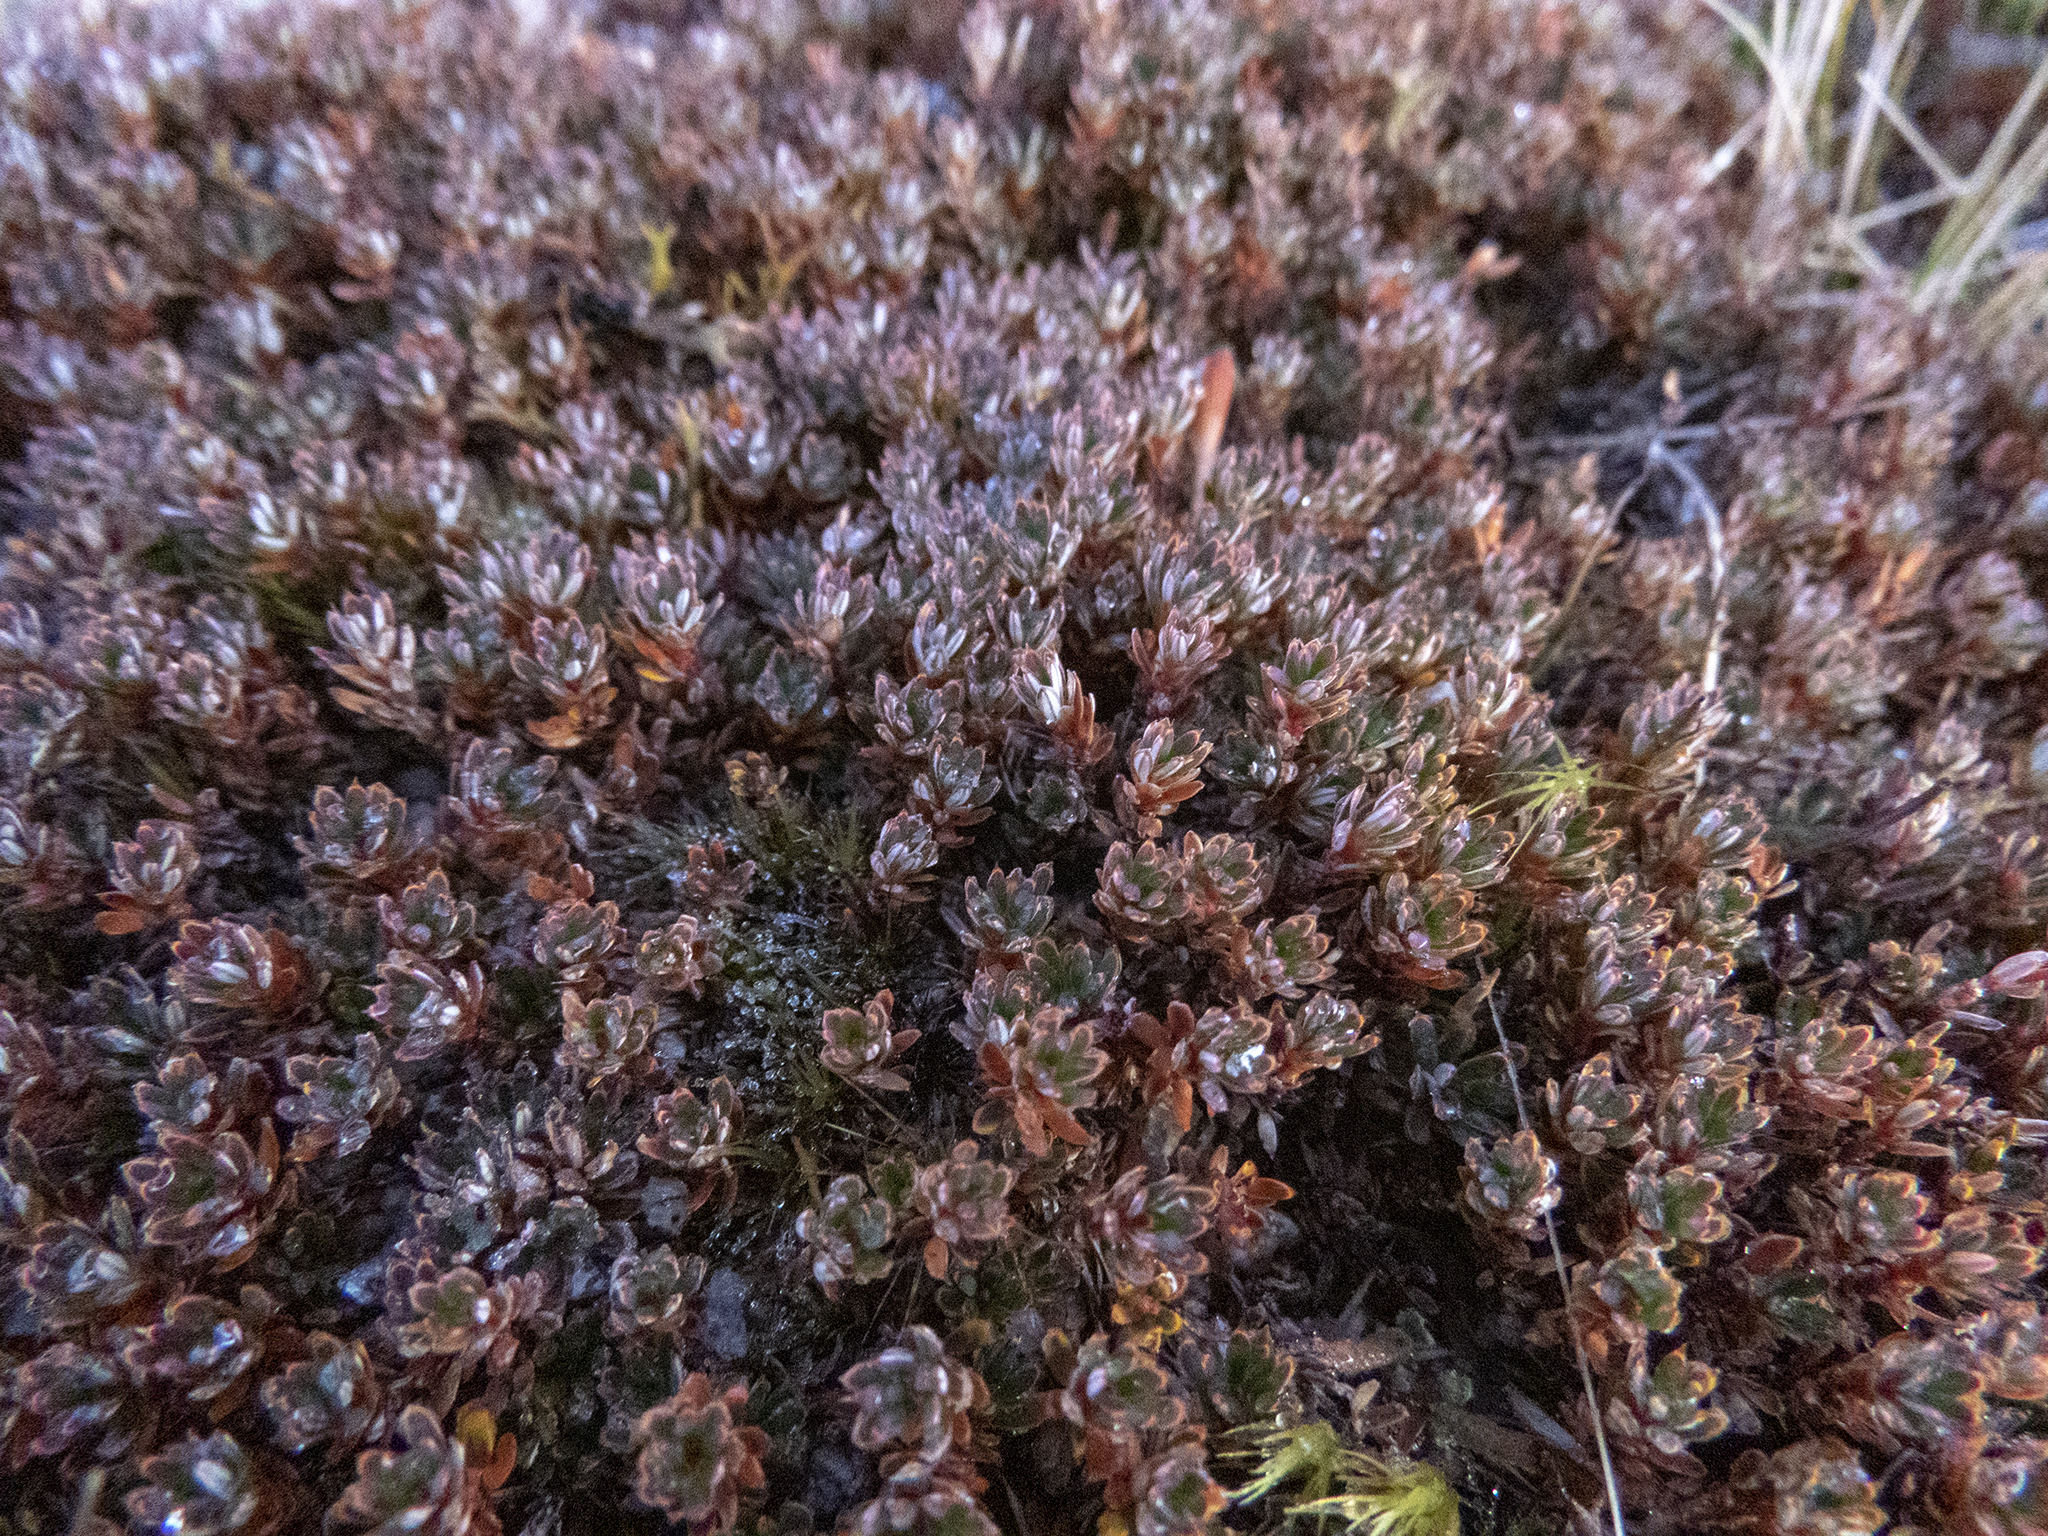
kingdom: Plantae
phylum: Tracheophyta
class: Magnoliopsida
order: Ericales
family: Ericaceae
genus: Montitega
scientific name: Montitega dealbata
